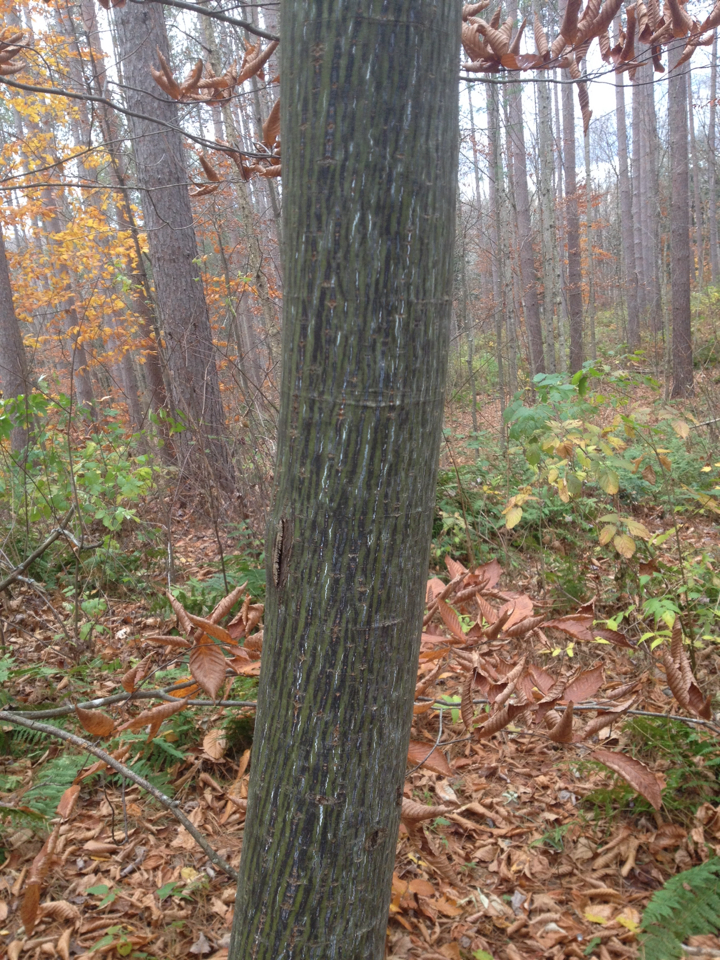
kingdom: Plantae
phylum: Tracheophyta
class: Magnoliopsida
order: Sapindales
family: Sapindaceae
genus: Acer
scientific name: Acer pensylvanicum
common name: Moosewood
